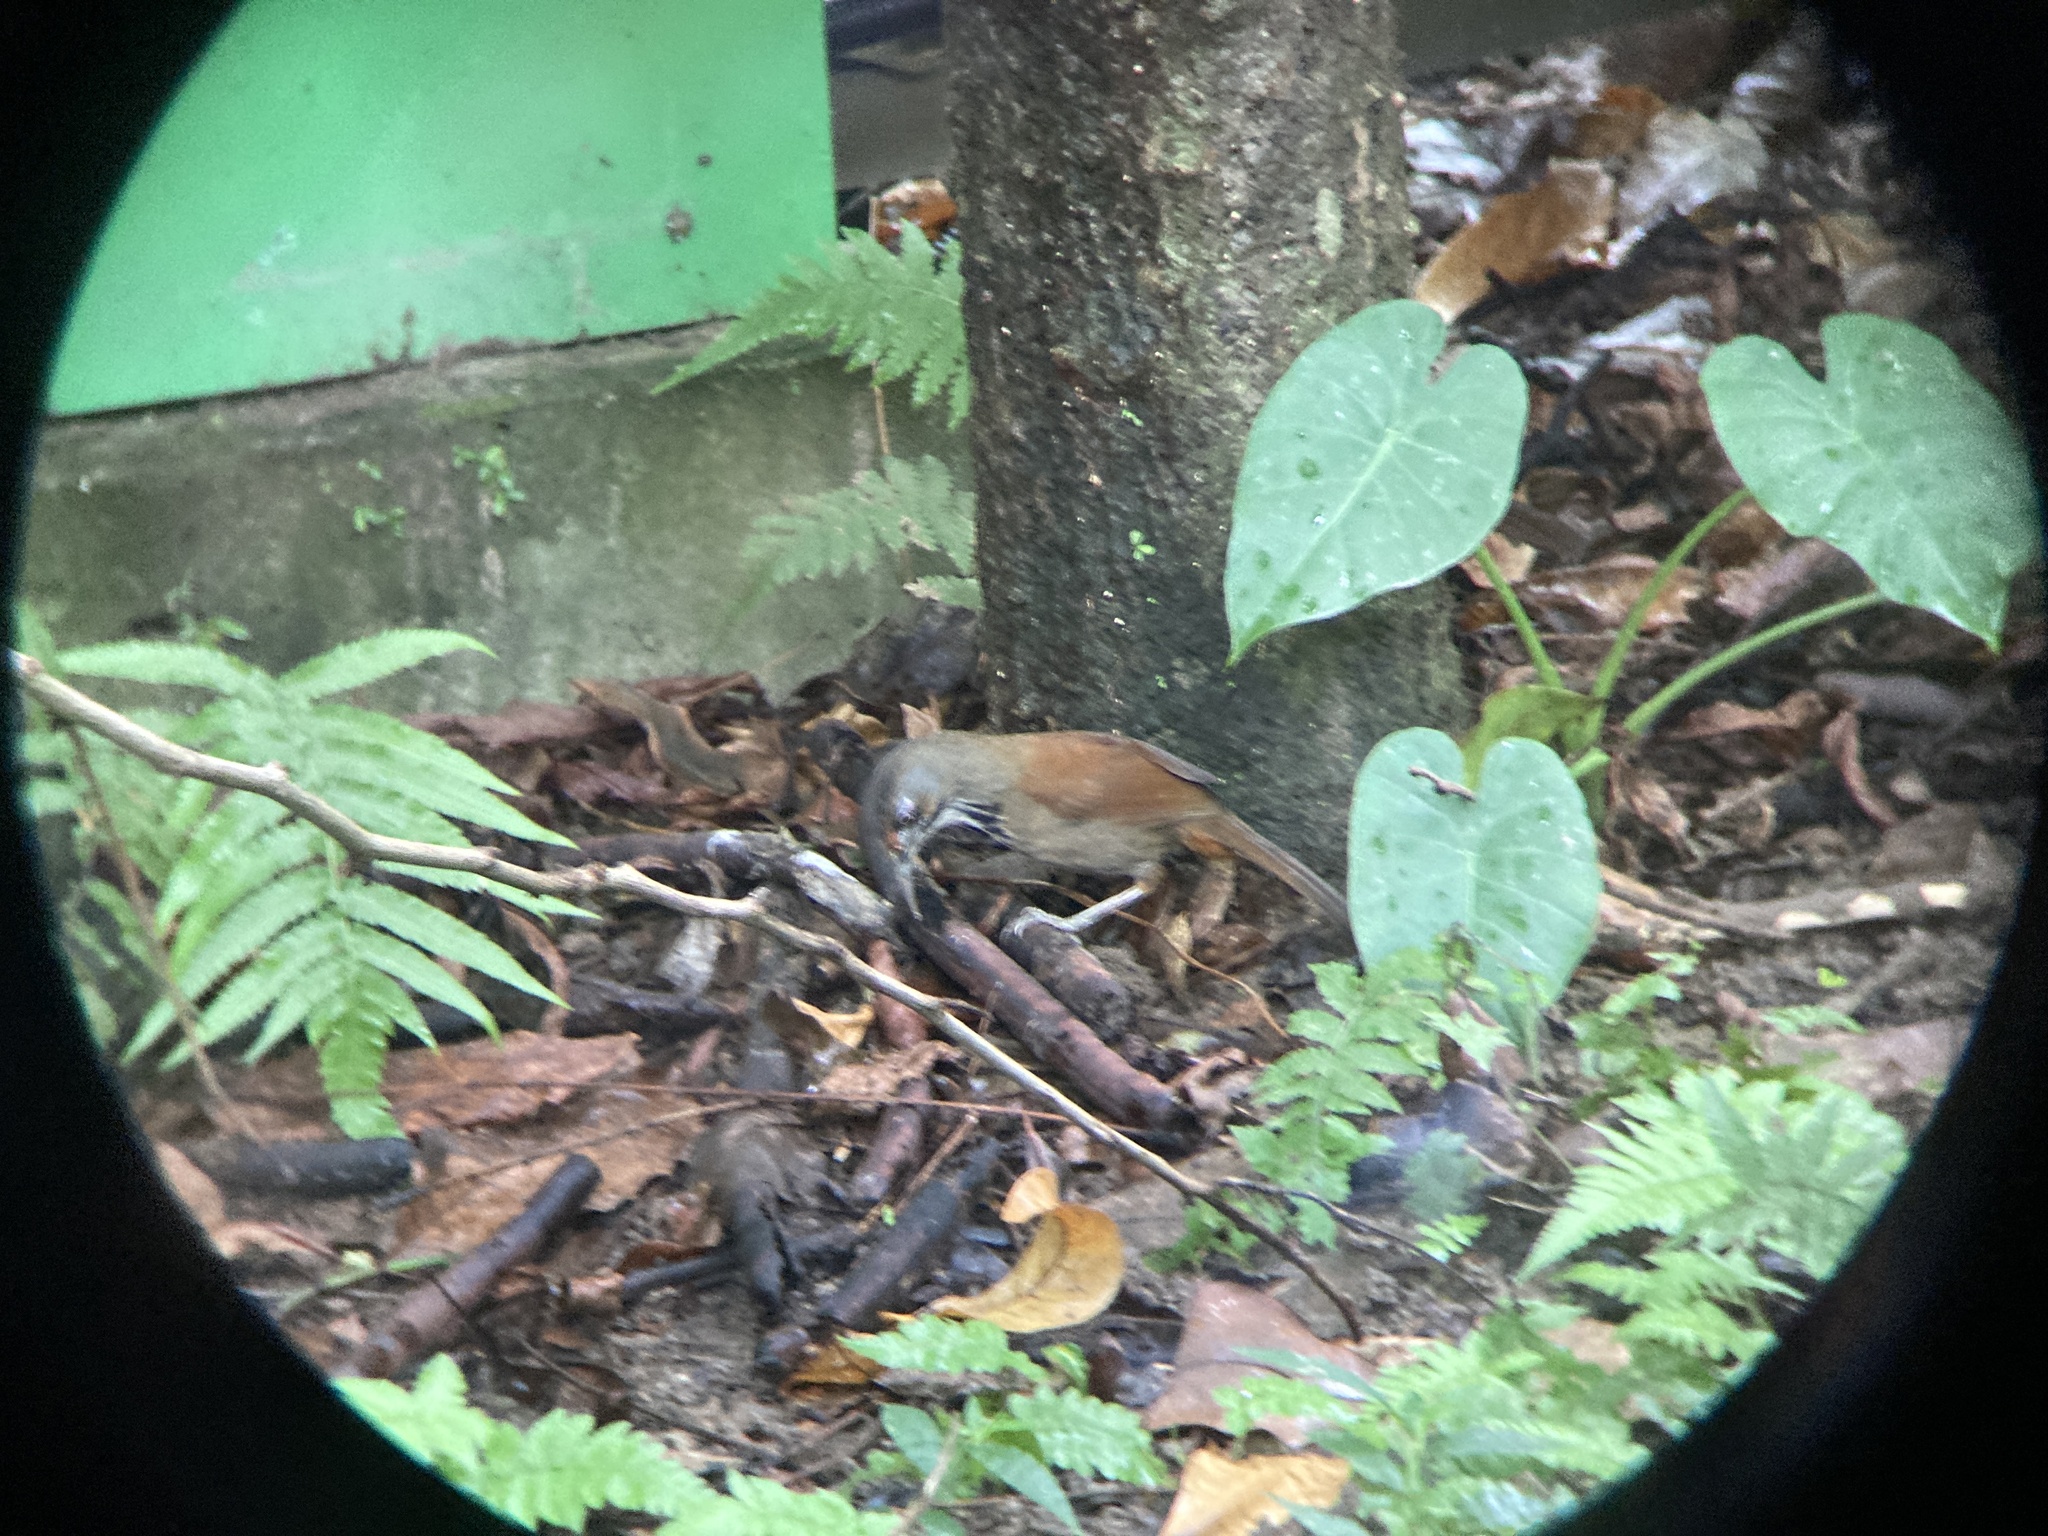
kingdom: Animalia
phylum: Chordata
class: Aves
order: Passeriformes
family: Timaliidae
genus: Pomatorhinus
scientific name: Pomatorhinus erythrocnemis
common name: Spot-breasted scimitar babbler
